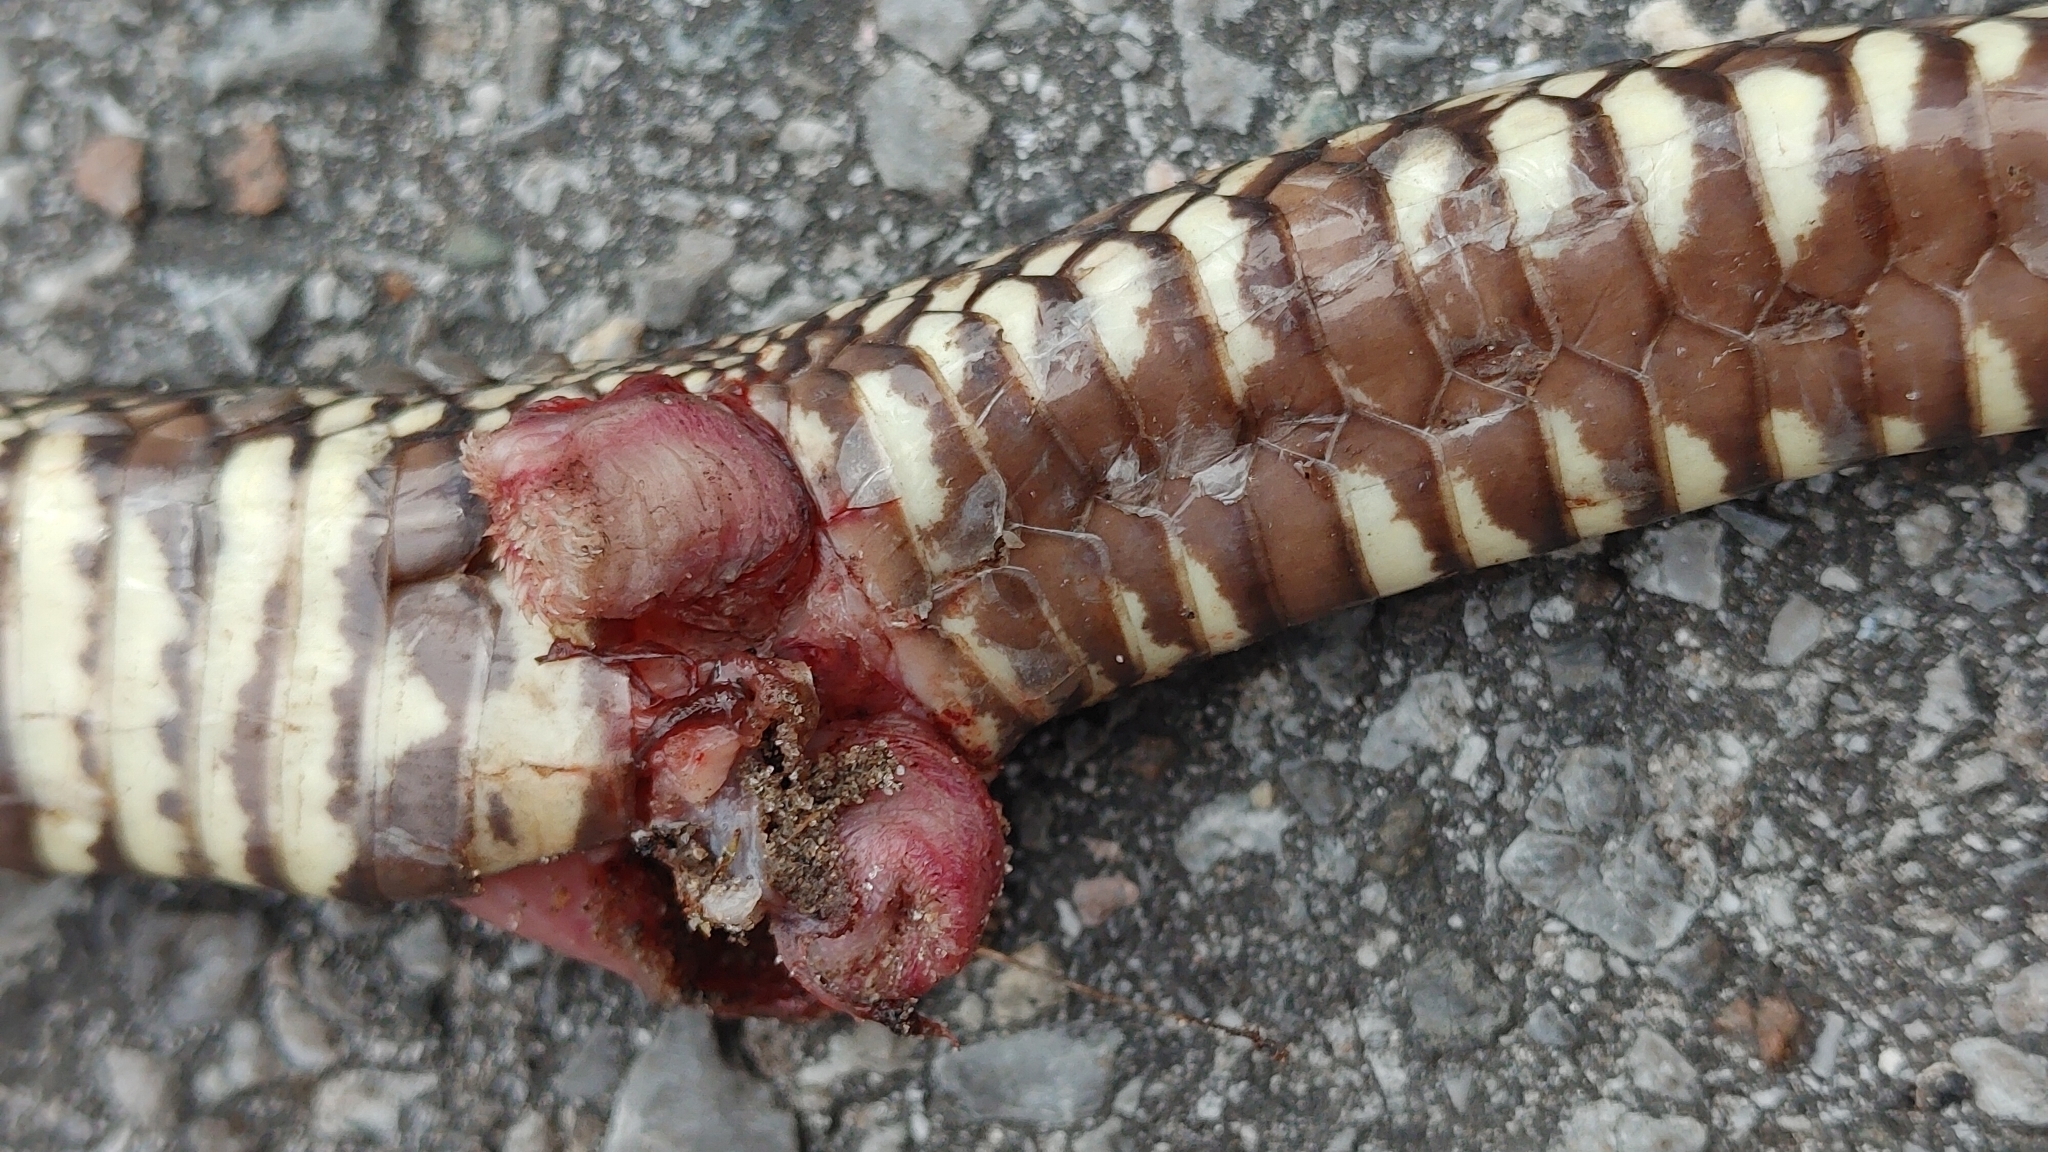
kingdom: Animalia
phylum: Chordata
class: Squamata
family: Colubridae
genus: Lampropeltis
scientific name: Lampropeltis getula
